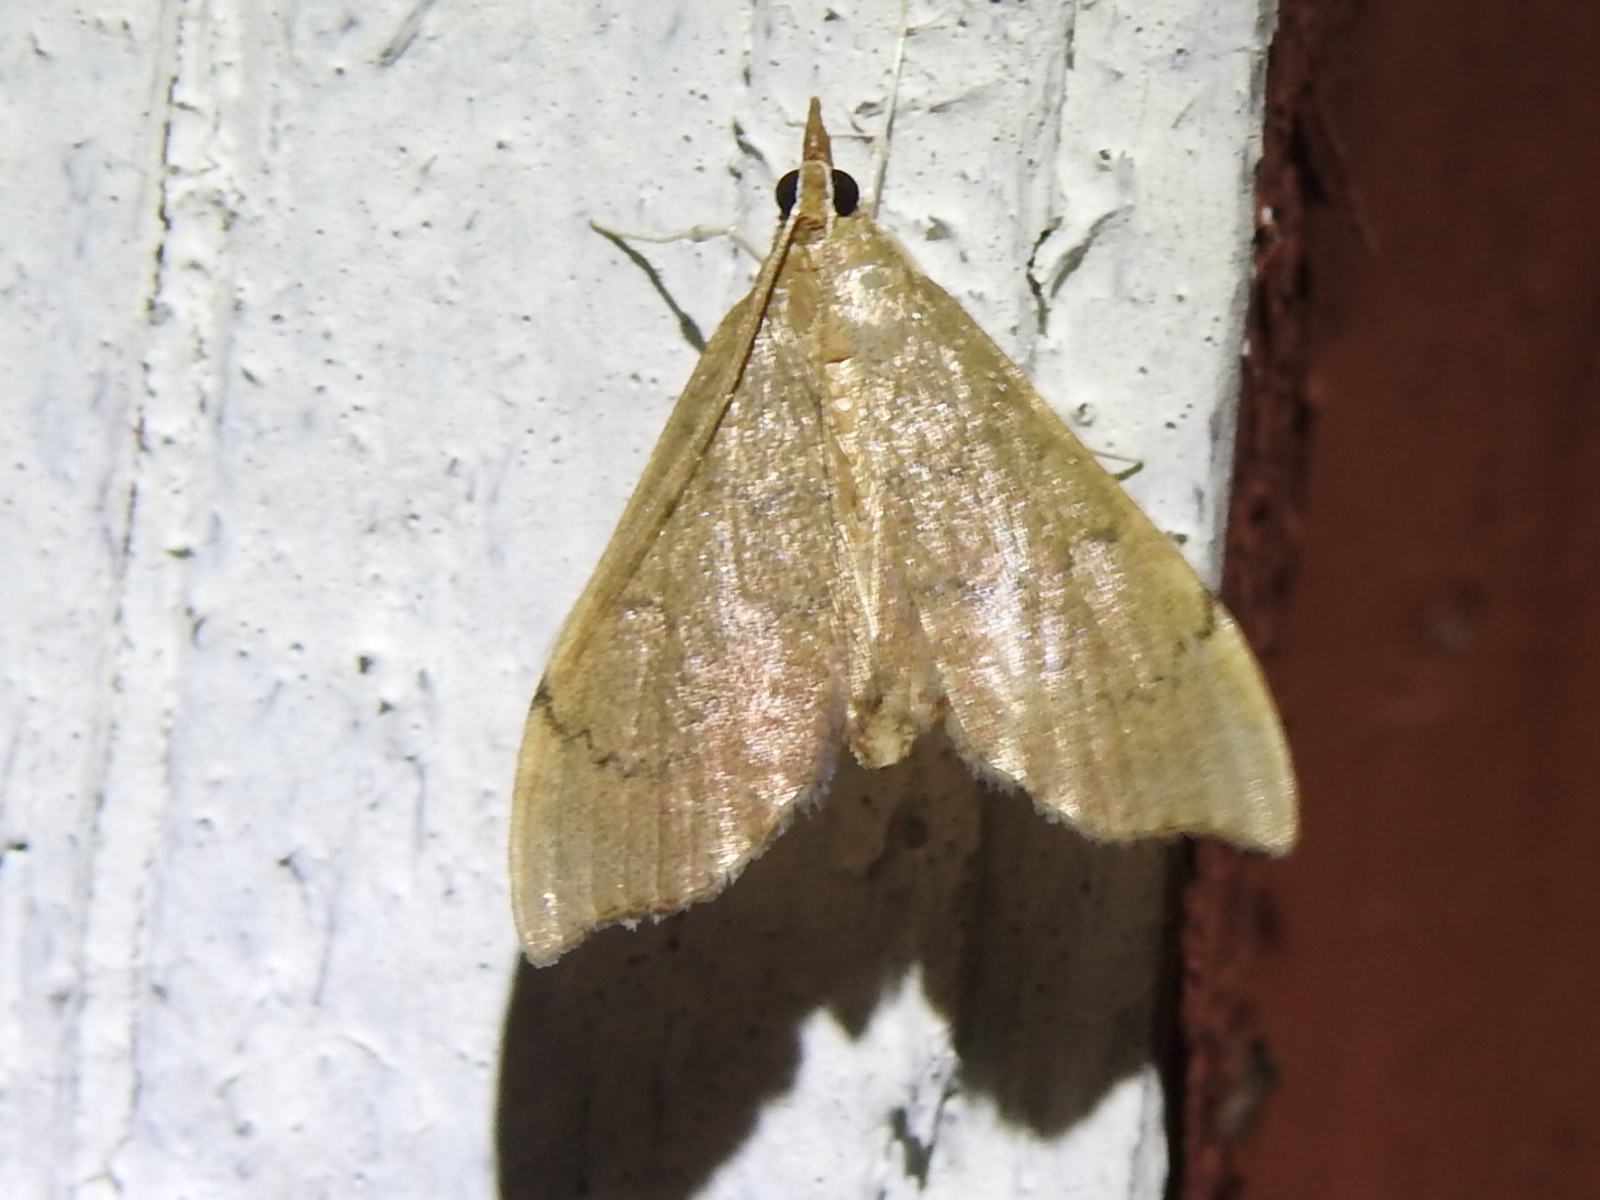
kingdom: Animalia
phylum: Arthropoda
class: Insecta
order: Lepidoptera
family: Crambidae
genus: Sericoplaga
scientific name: Sericoplaga externalis
